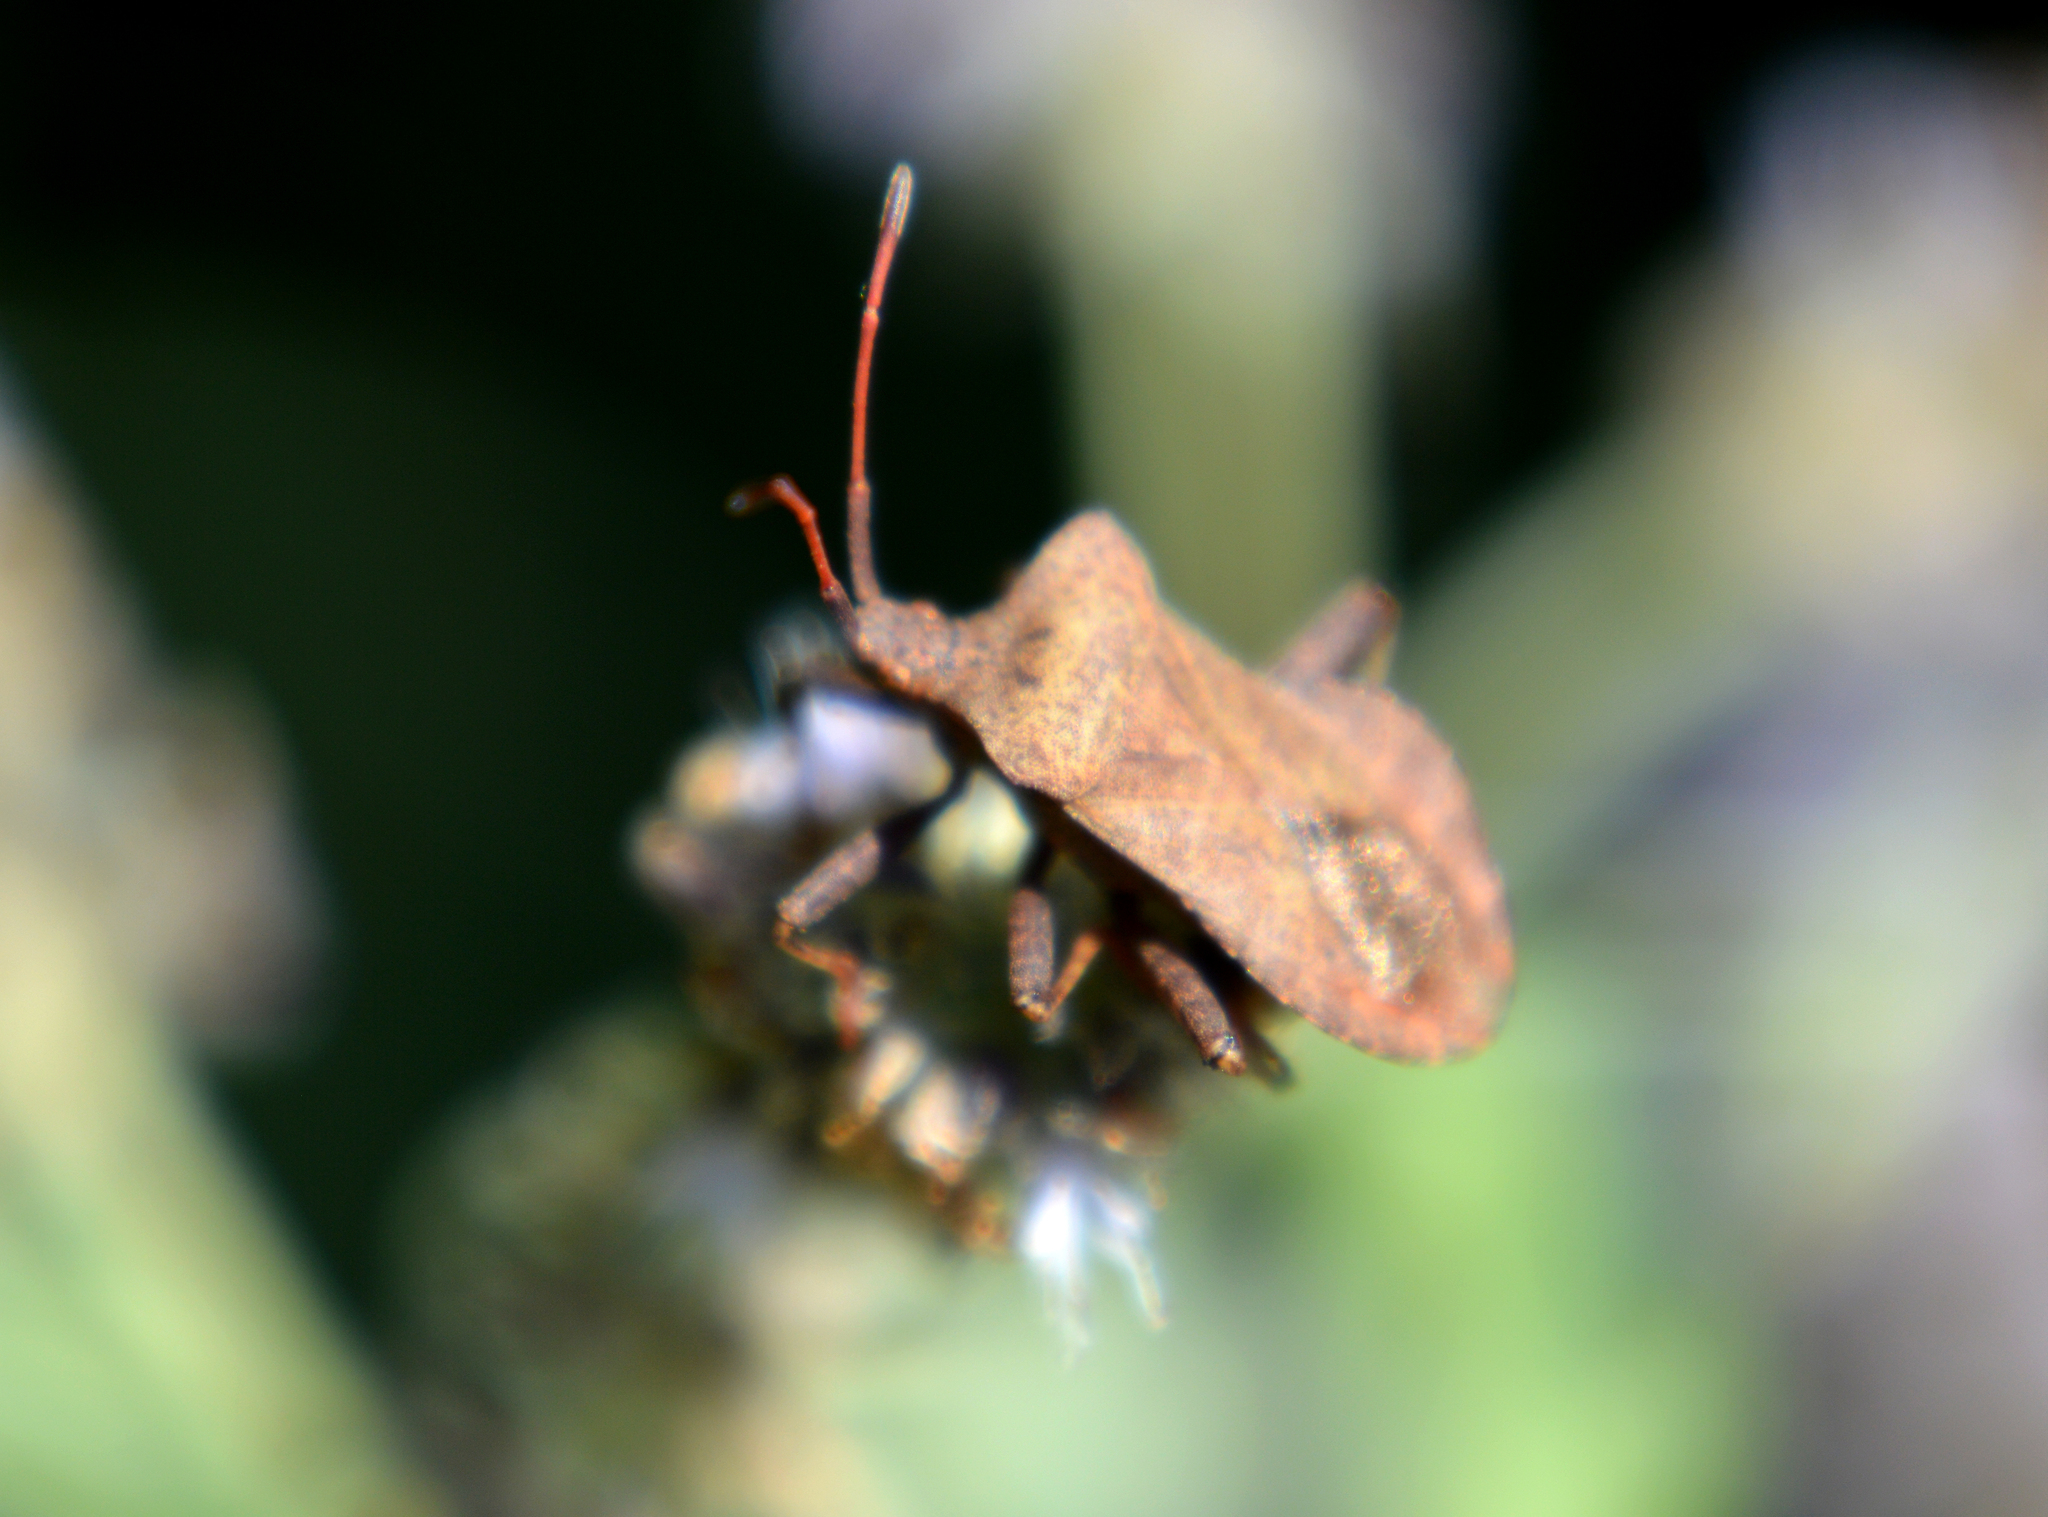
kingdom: Animalia
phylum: Arthropoda
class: Insecta
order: Hemiptera
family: Coreidae
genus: Coreus
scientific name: Coreus marginatus
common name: Dock bug
